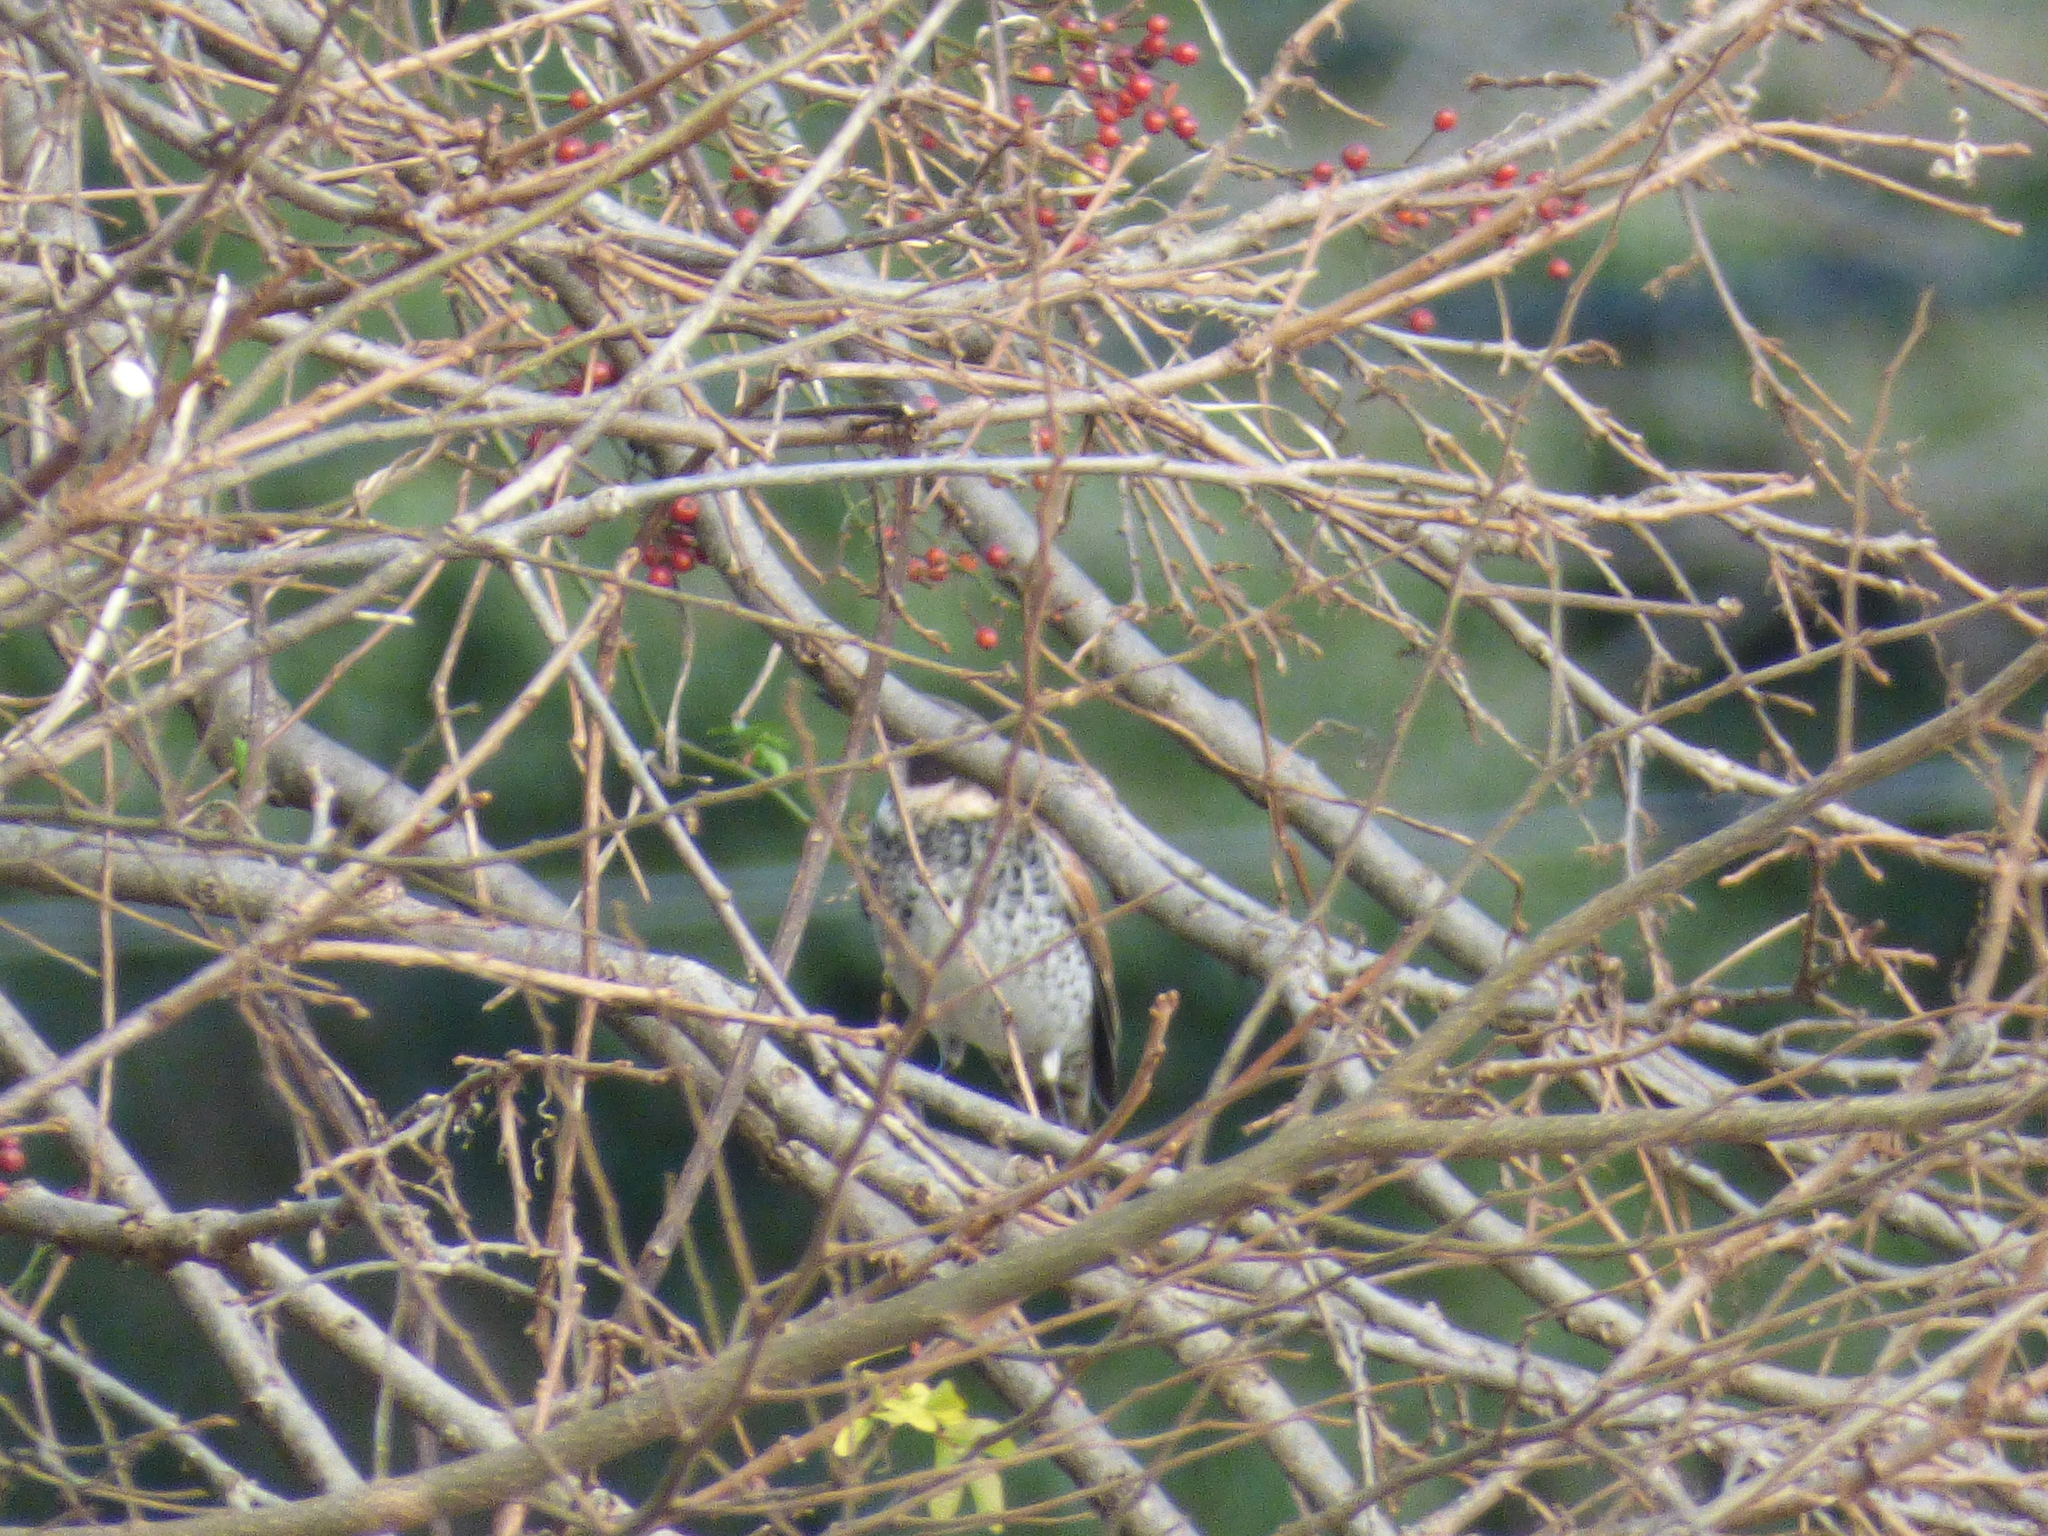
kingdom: Animalia
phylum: Chordata
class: Aves
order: Passeriformes
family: Turdidae
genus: Turdus
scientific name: Turdus eunomus
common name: Dusky thrush
